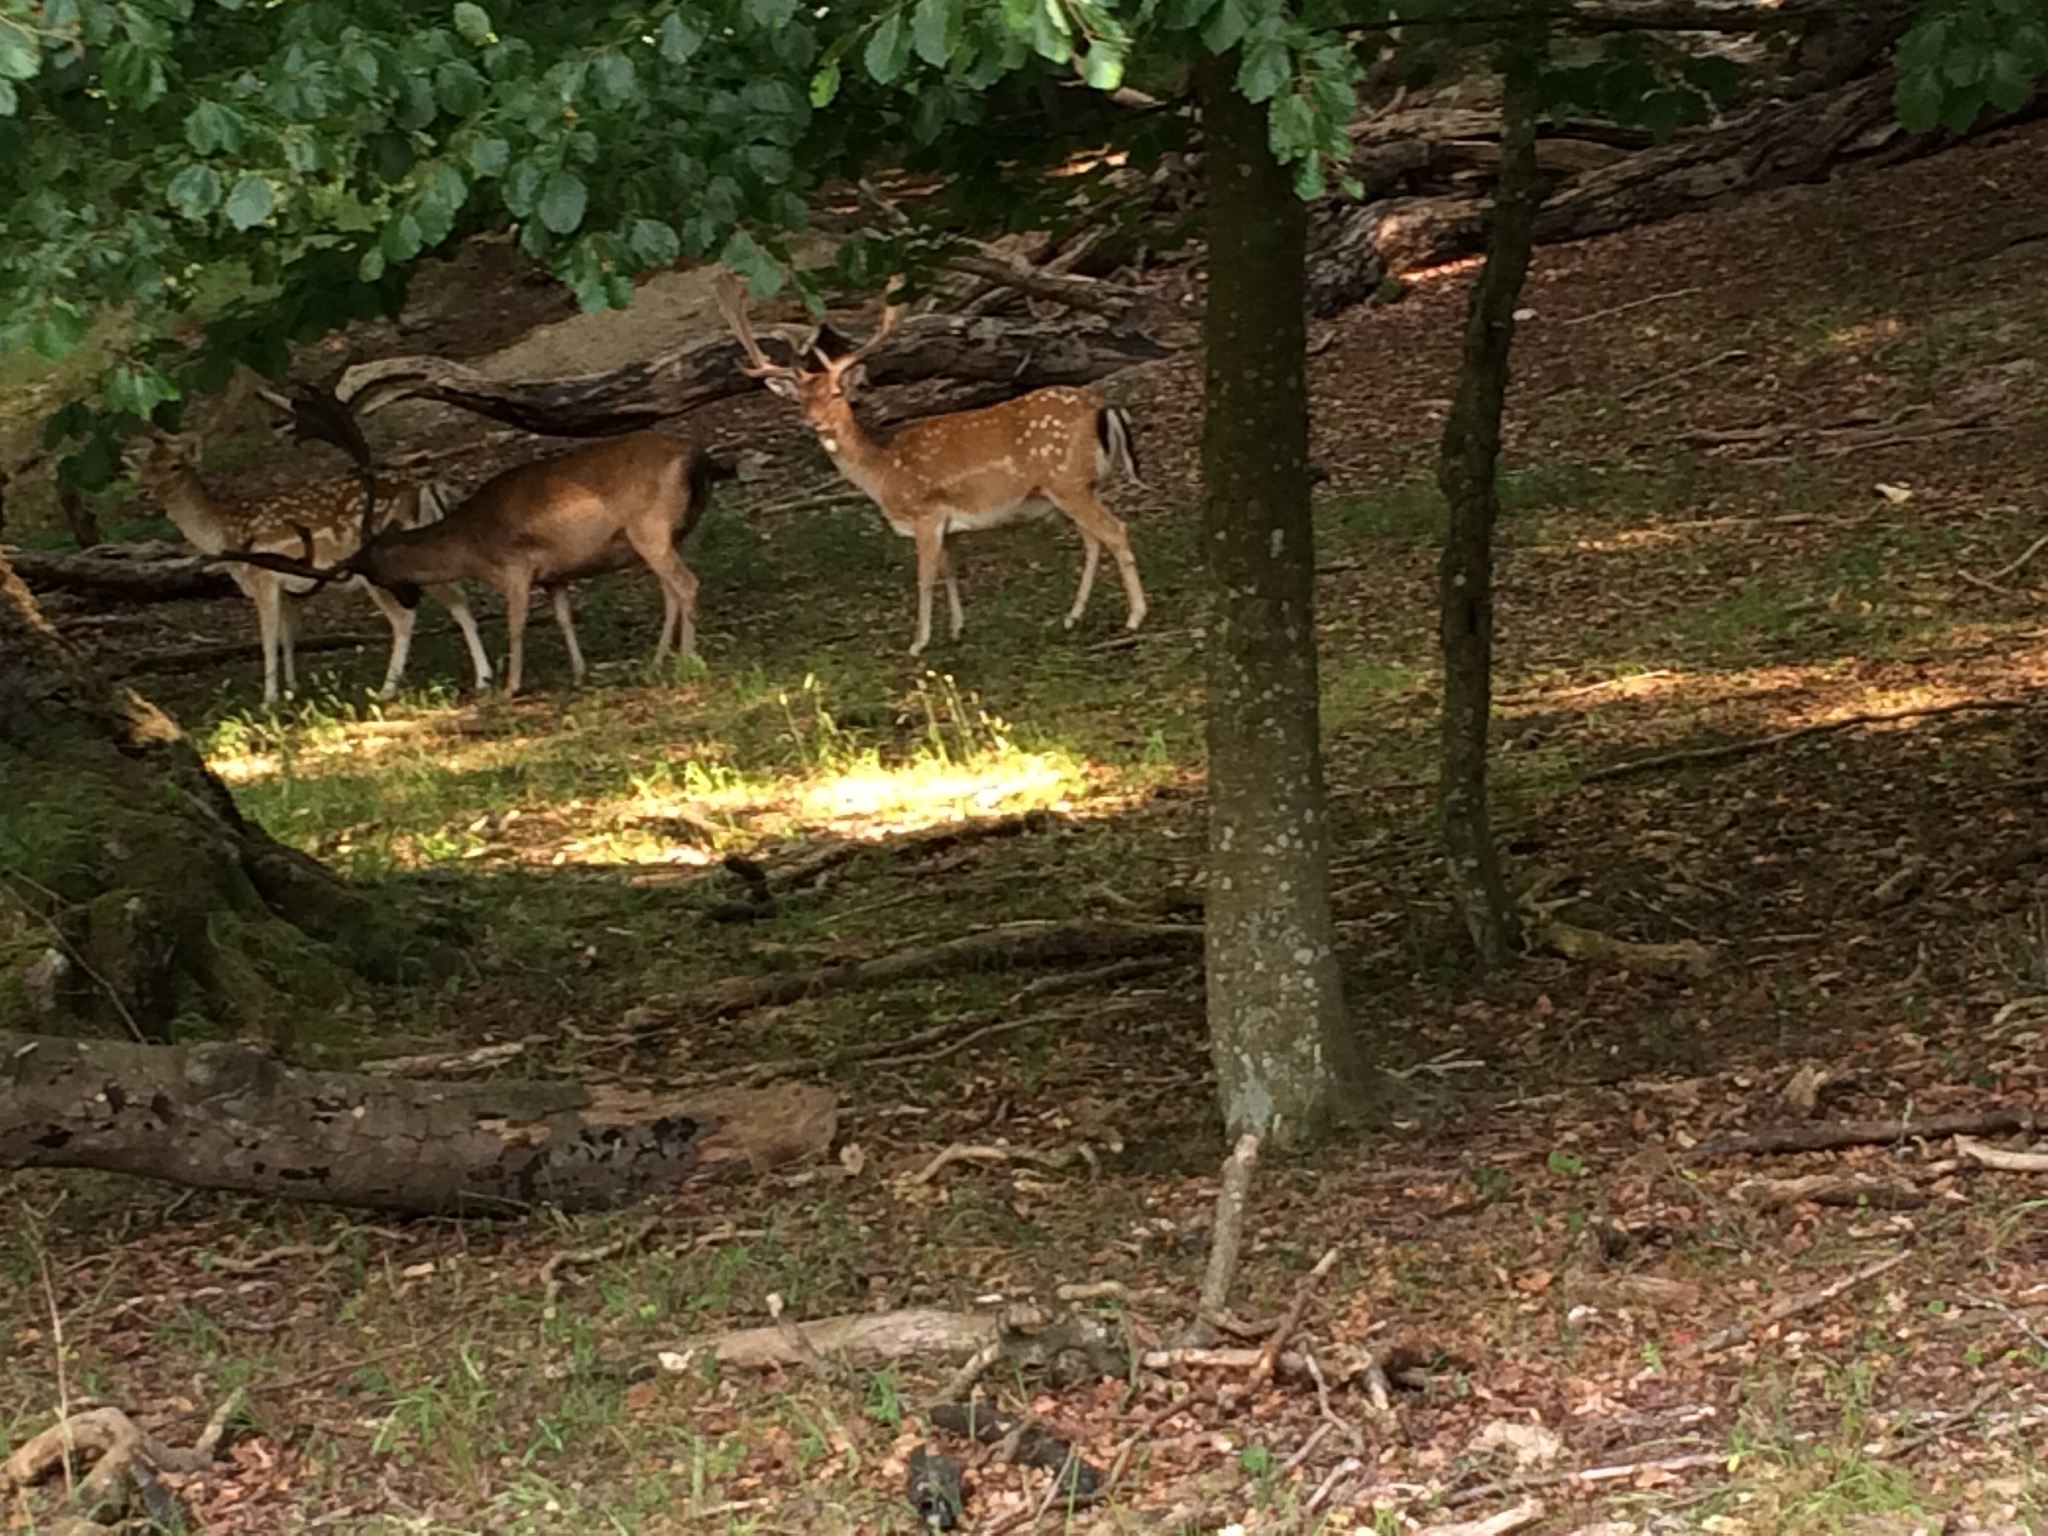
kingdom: Animalia
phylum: Chordata
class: Mammalia
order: Artiodactyla
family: Cervidae
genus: Dama
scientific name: Dama dama
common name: Fallow deer
